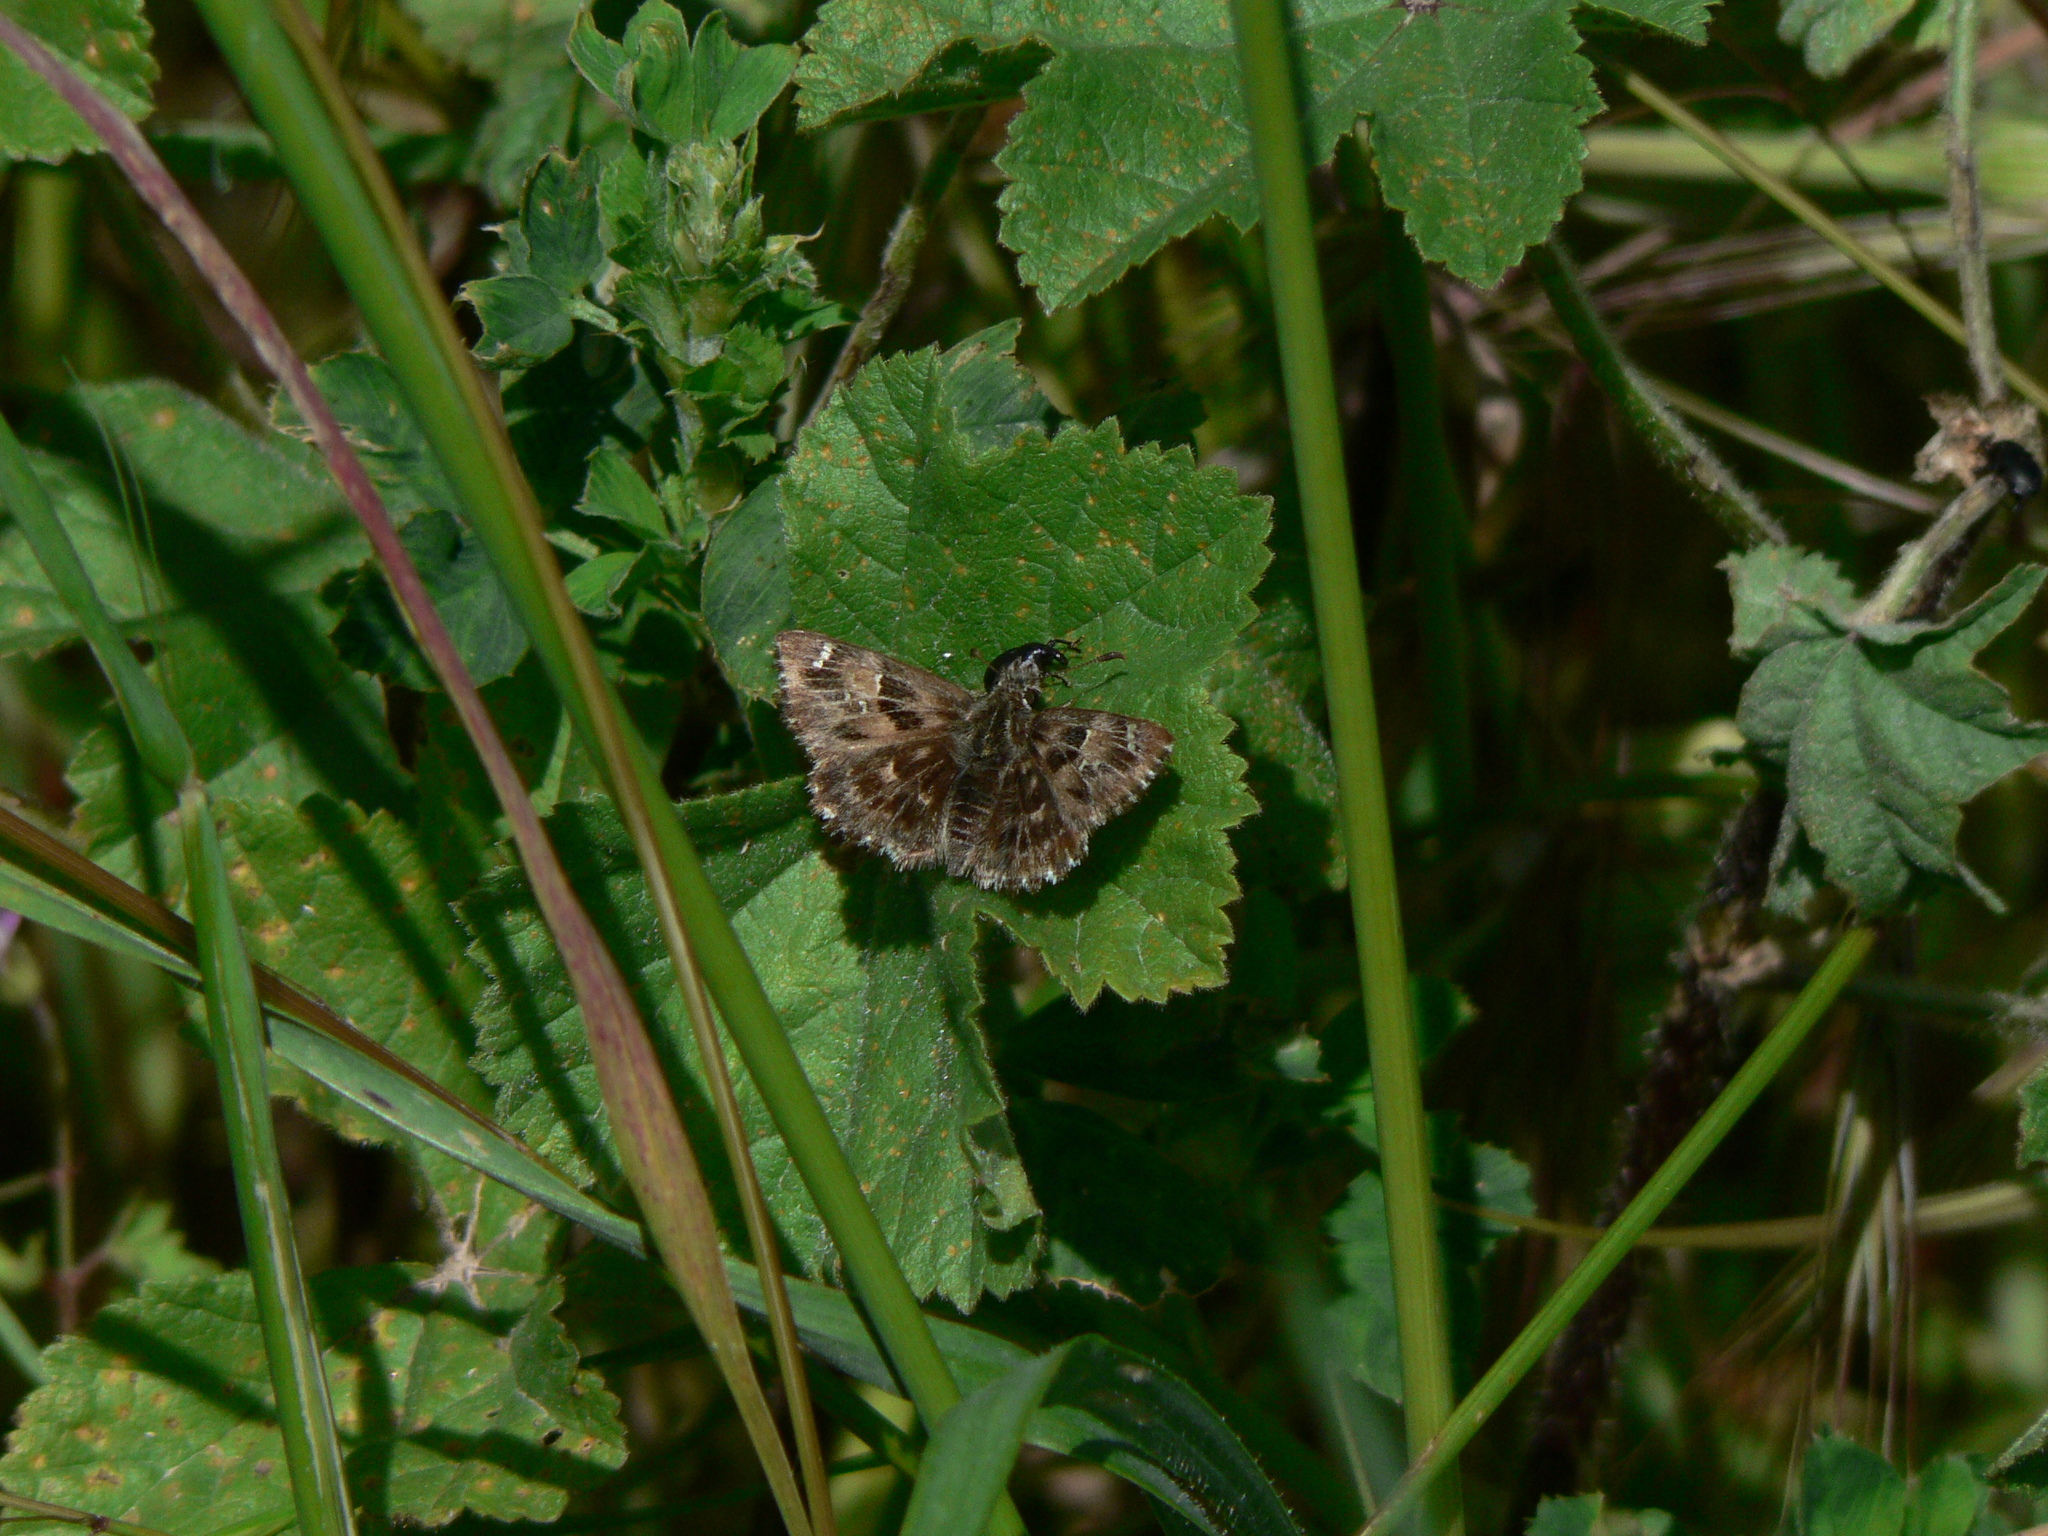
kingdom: Animalia
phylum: Arthropoda
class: Insecta
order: Lepidoptera
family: Hesperiidae
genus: Carcharodus
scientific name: Carcharodus alceae
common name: Mallow skipper
